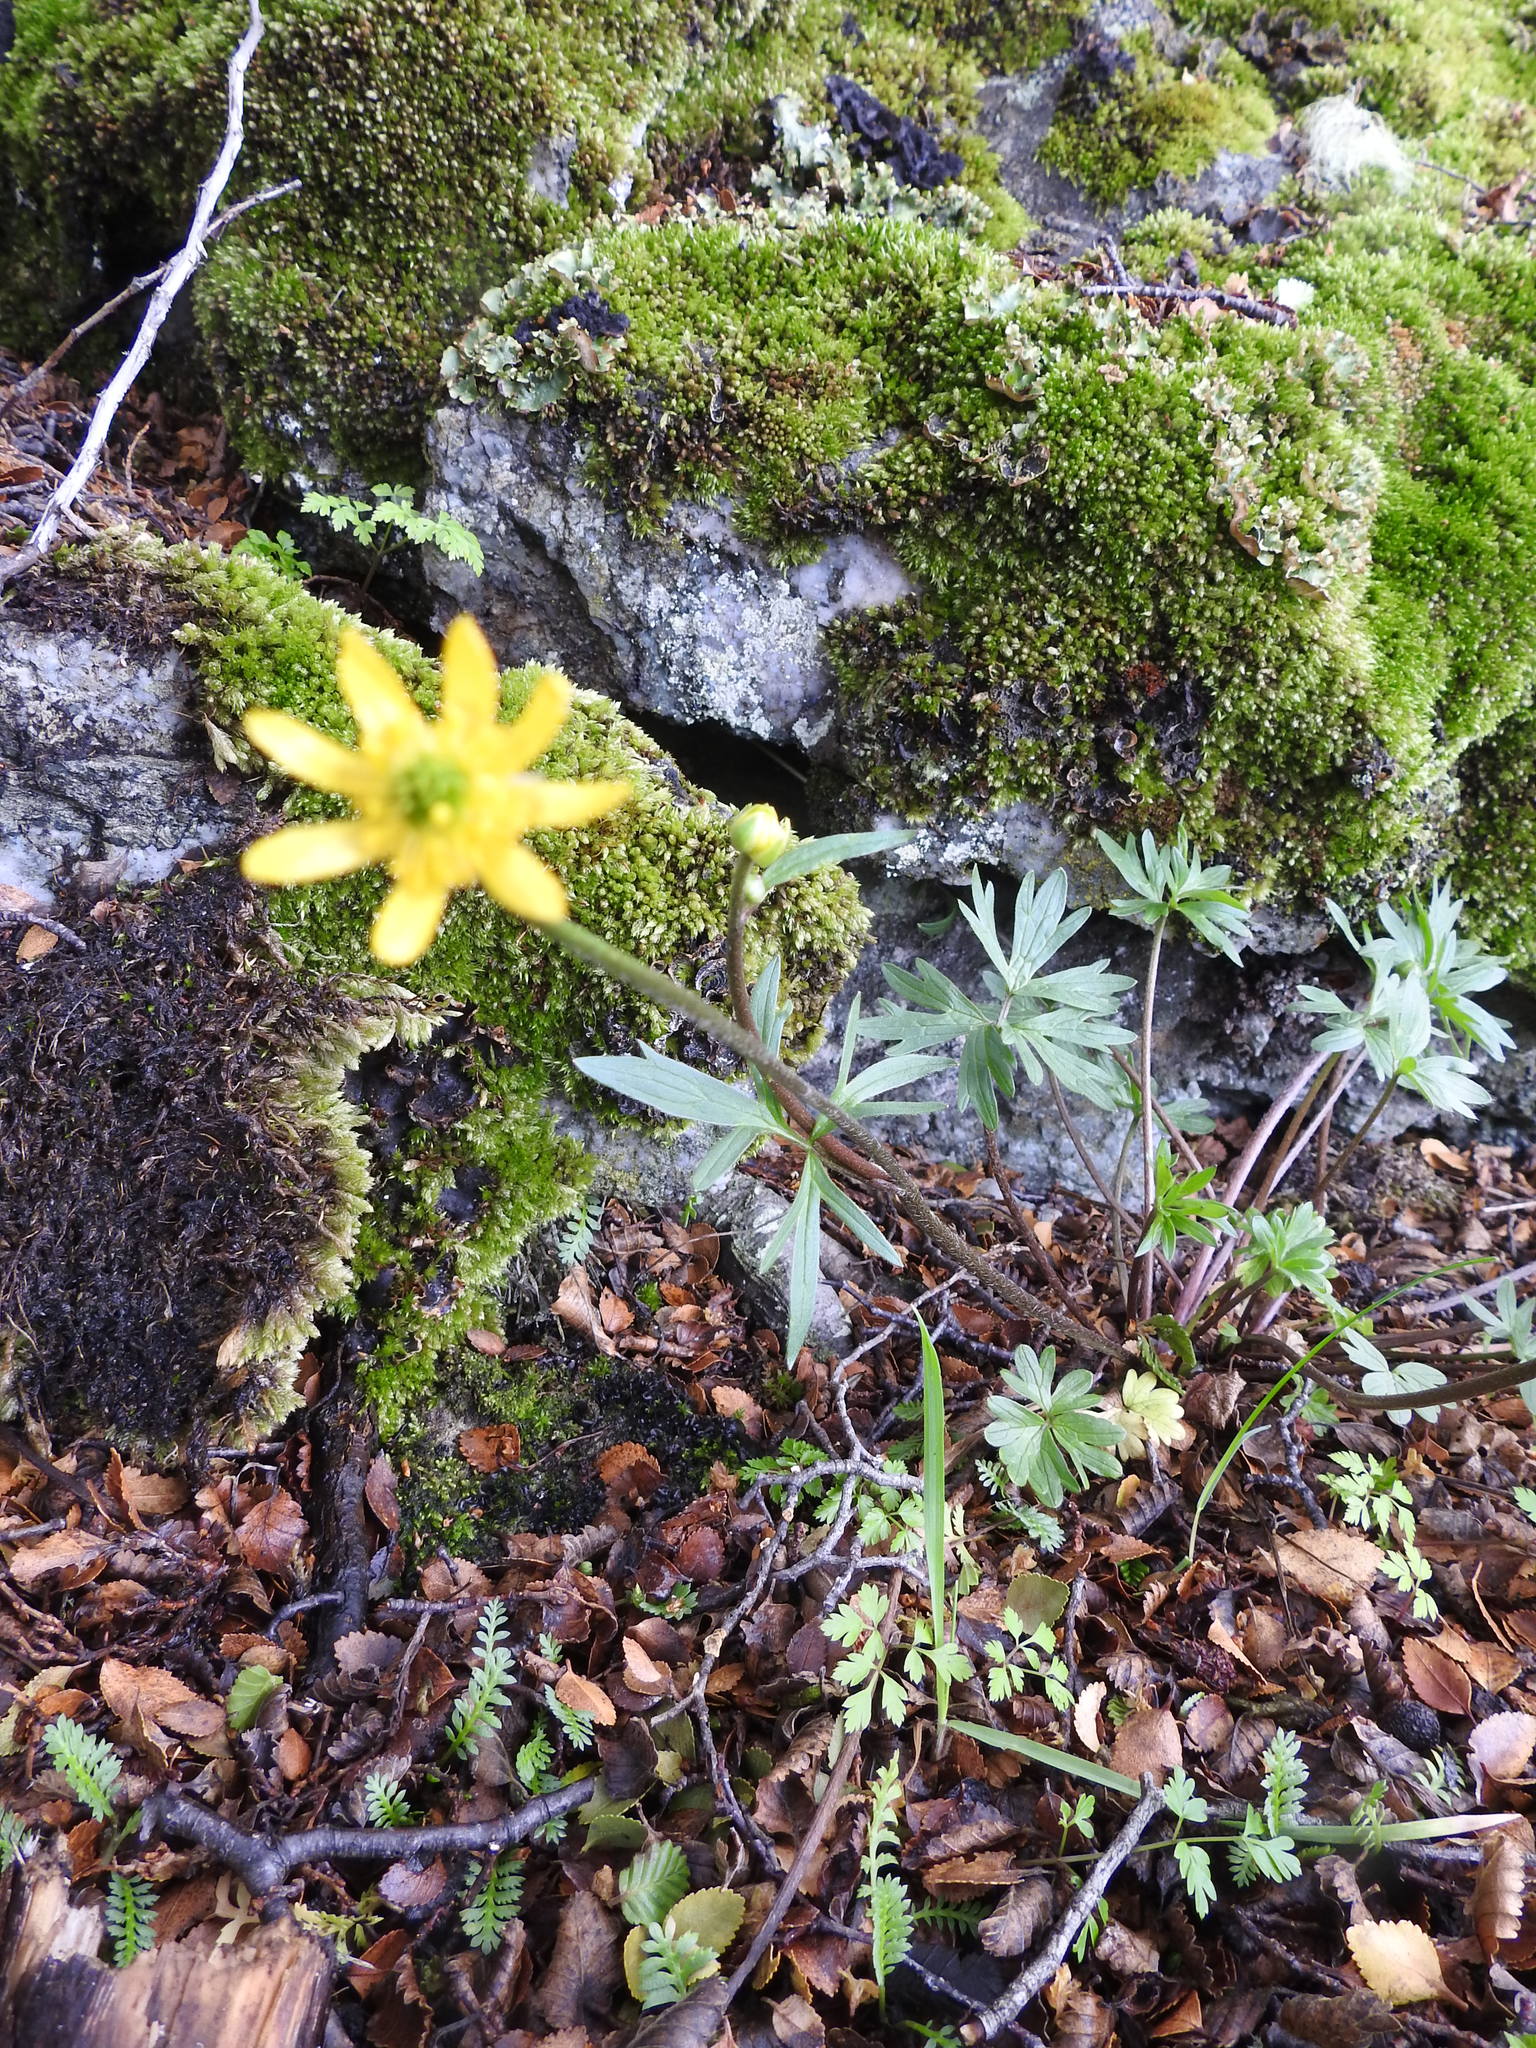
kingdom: Plantae
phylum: Tracheophyta
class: Magnoliopsida
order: Ranunculales
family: Ranunculaceae
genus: Ranunculus
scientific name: Ranunculus peduncularis
